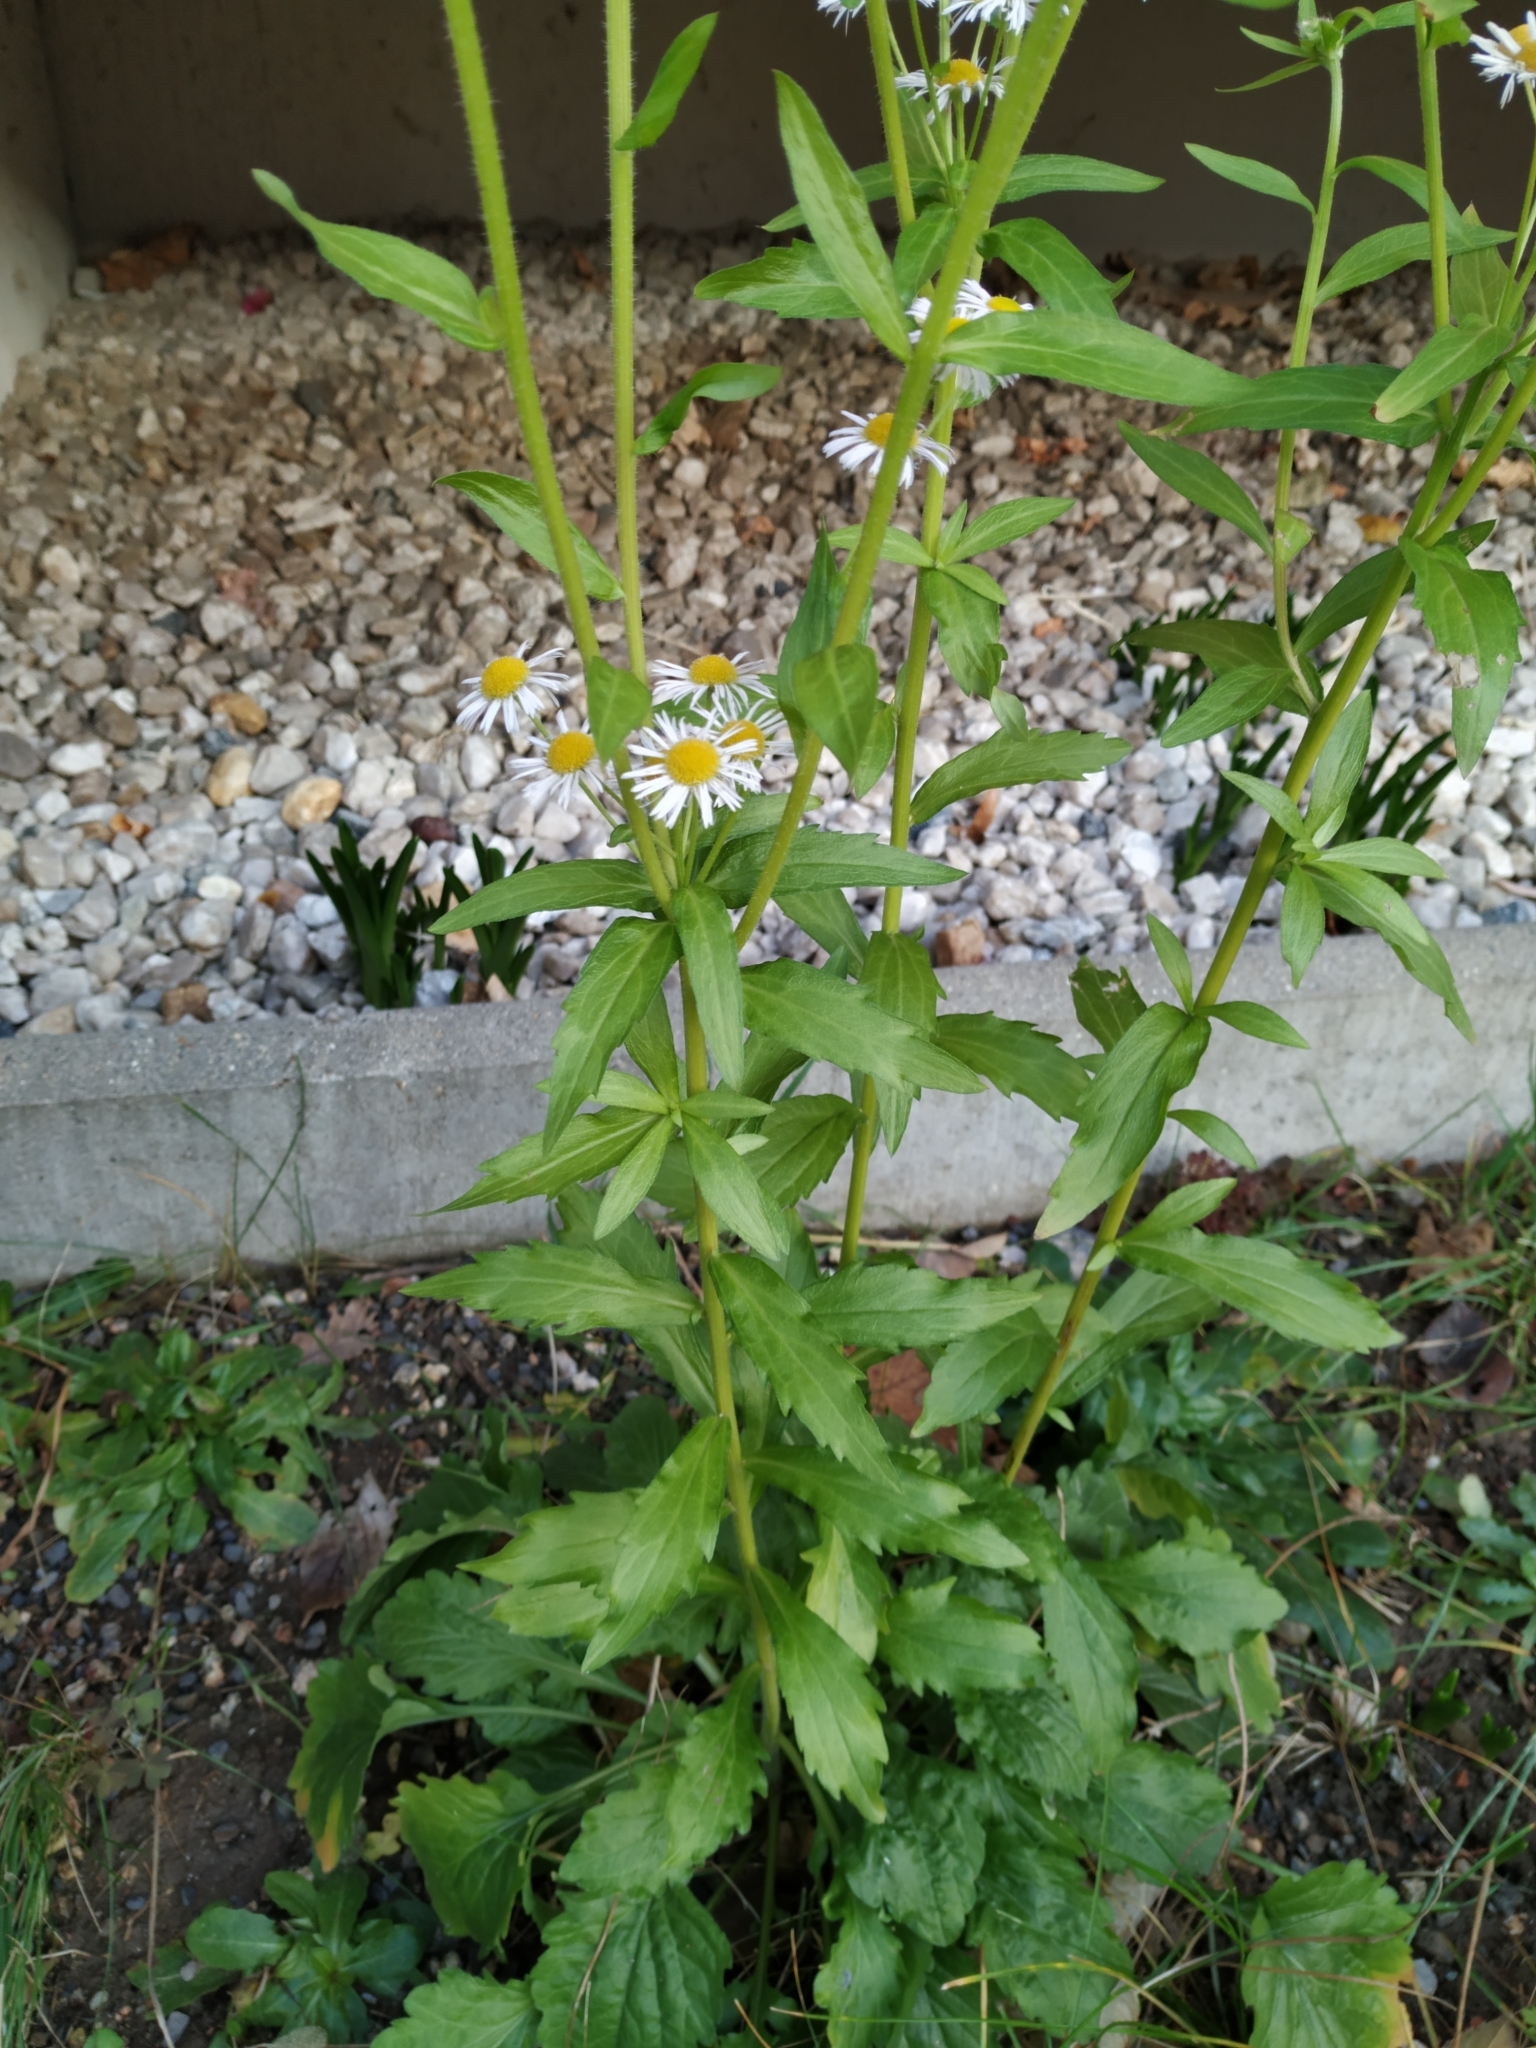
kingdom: Plantae
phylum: Tracheophyta
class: Magnoliopsida
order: Asterales
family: Asteraceae
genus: Erigeron
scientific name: Erigeron annuus
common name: Tall fleabane
